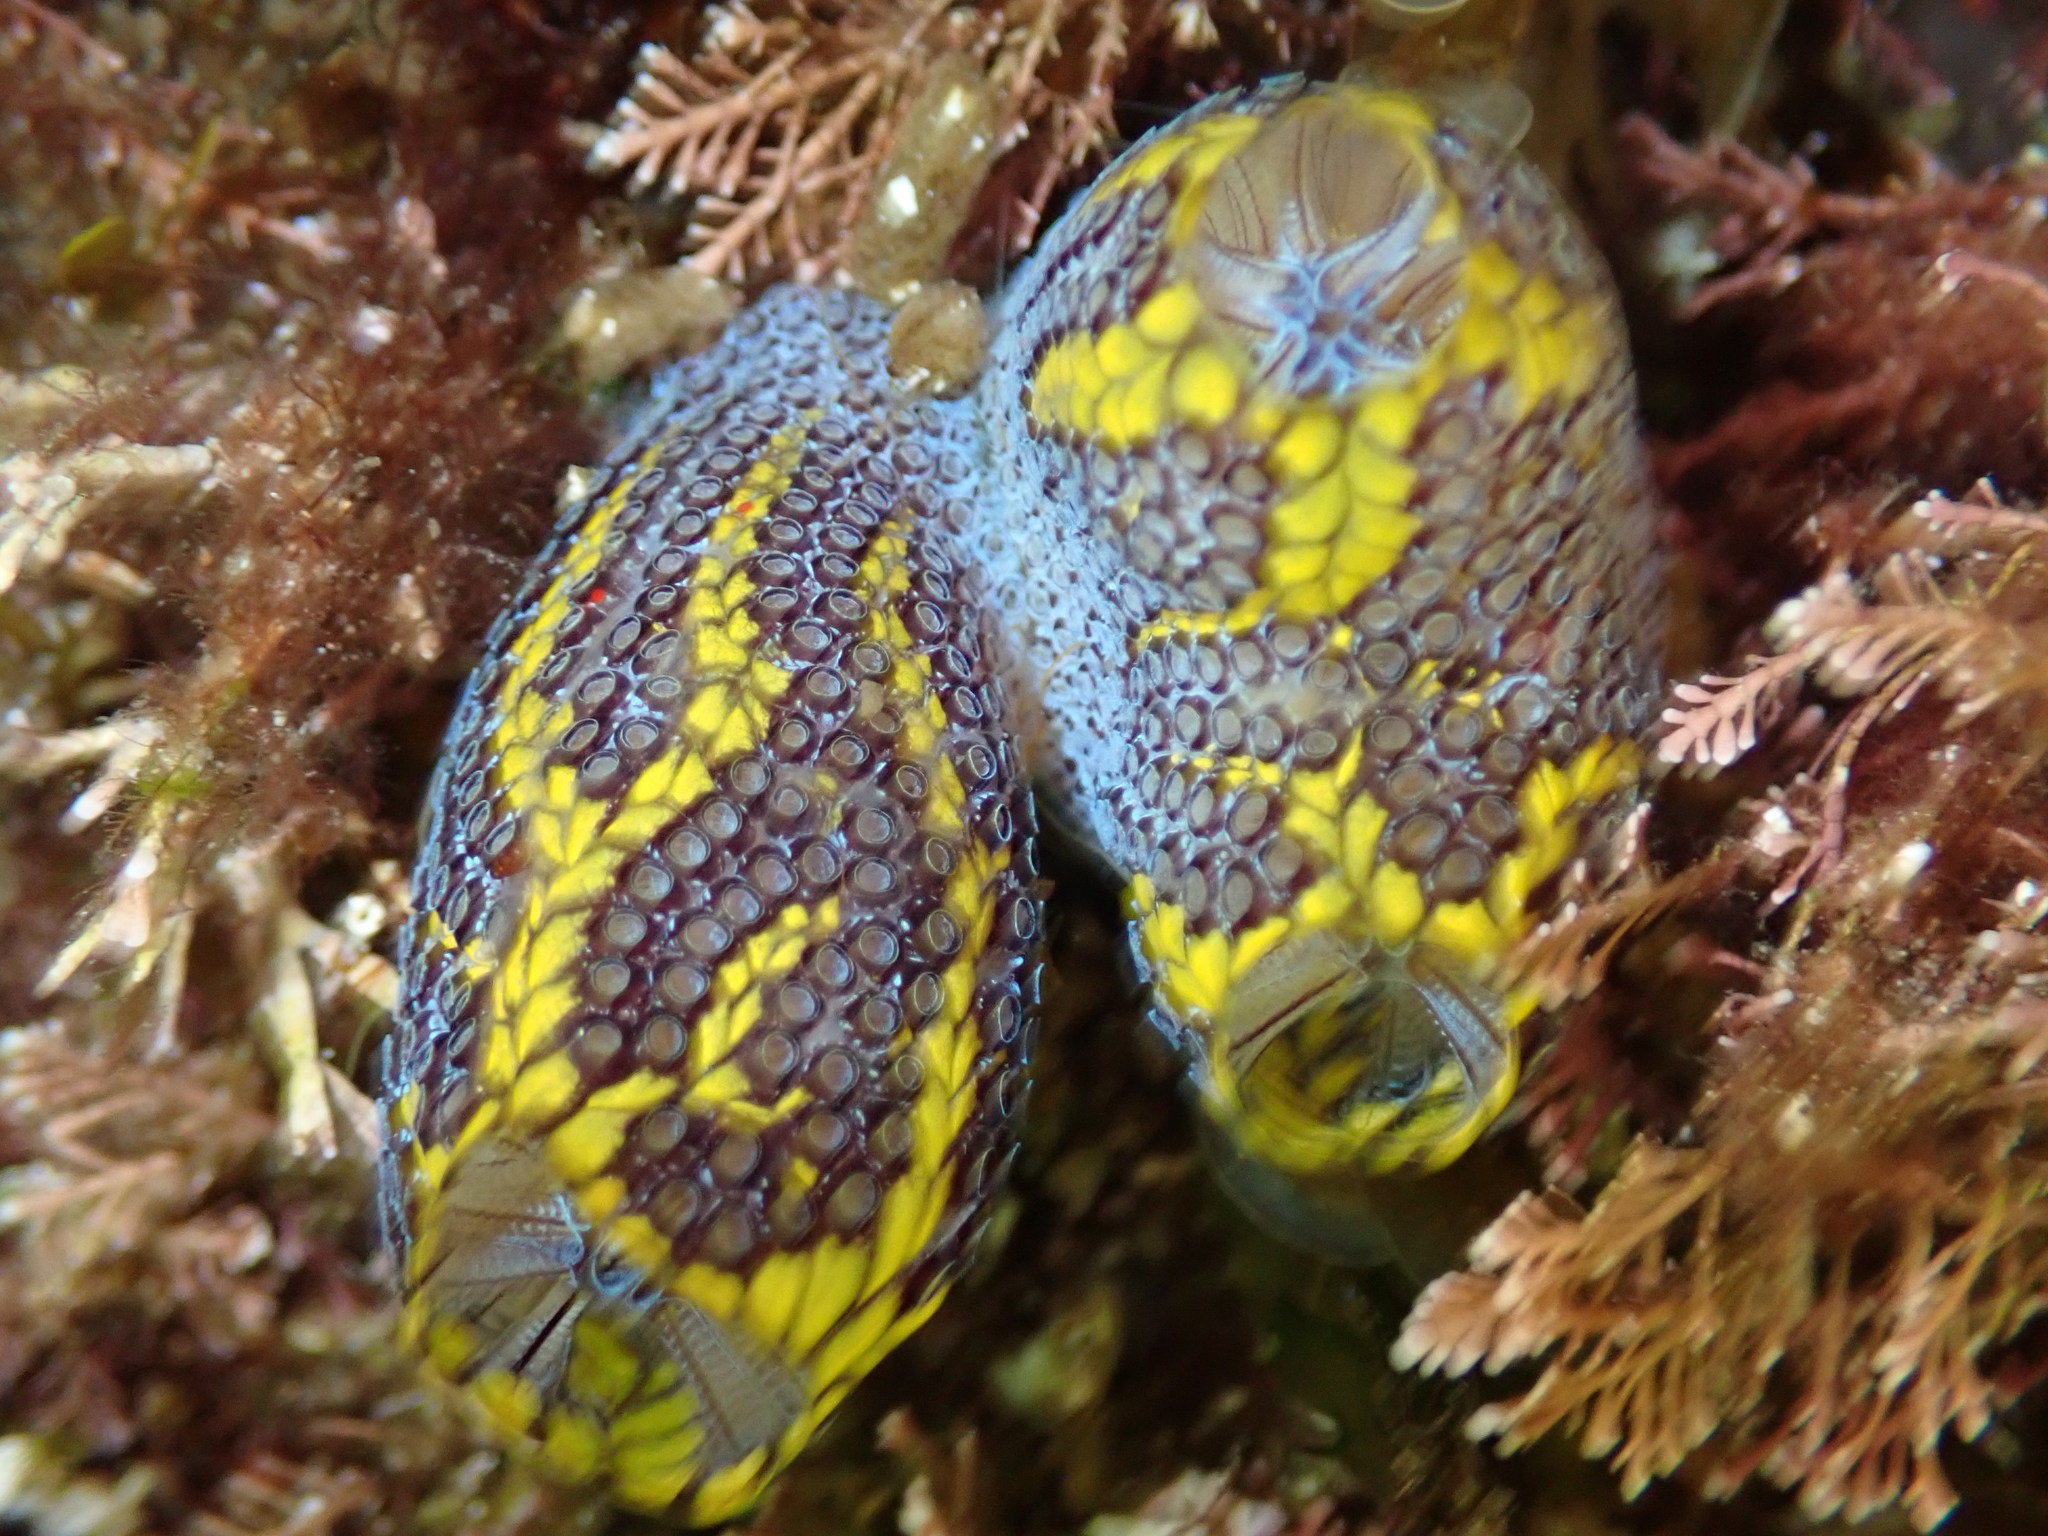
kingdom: Animalia
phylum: Chordata
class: Ascidiacea
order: Stolidobranchia
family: Styelidae
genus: Botrylloides
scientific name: Botrylloides magnicoecus
